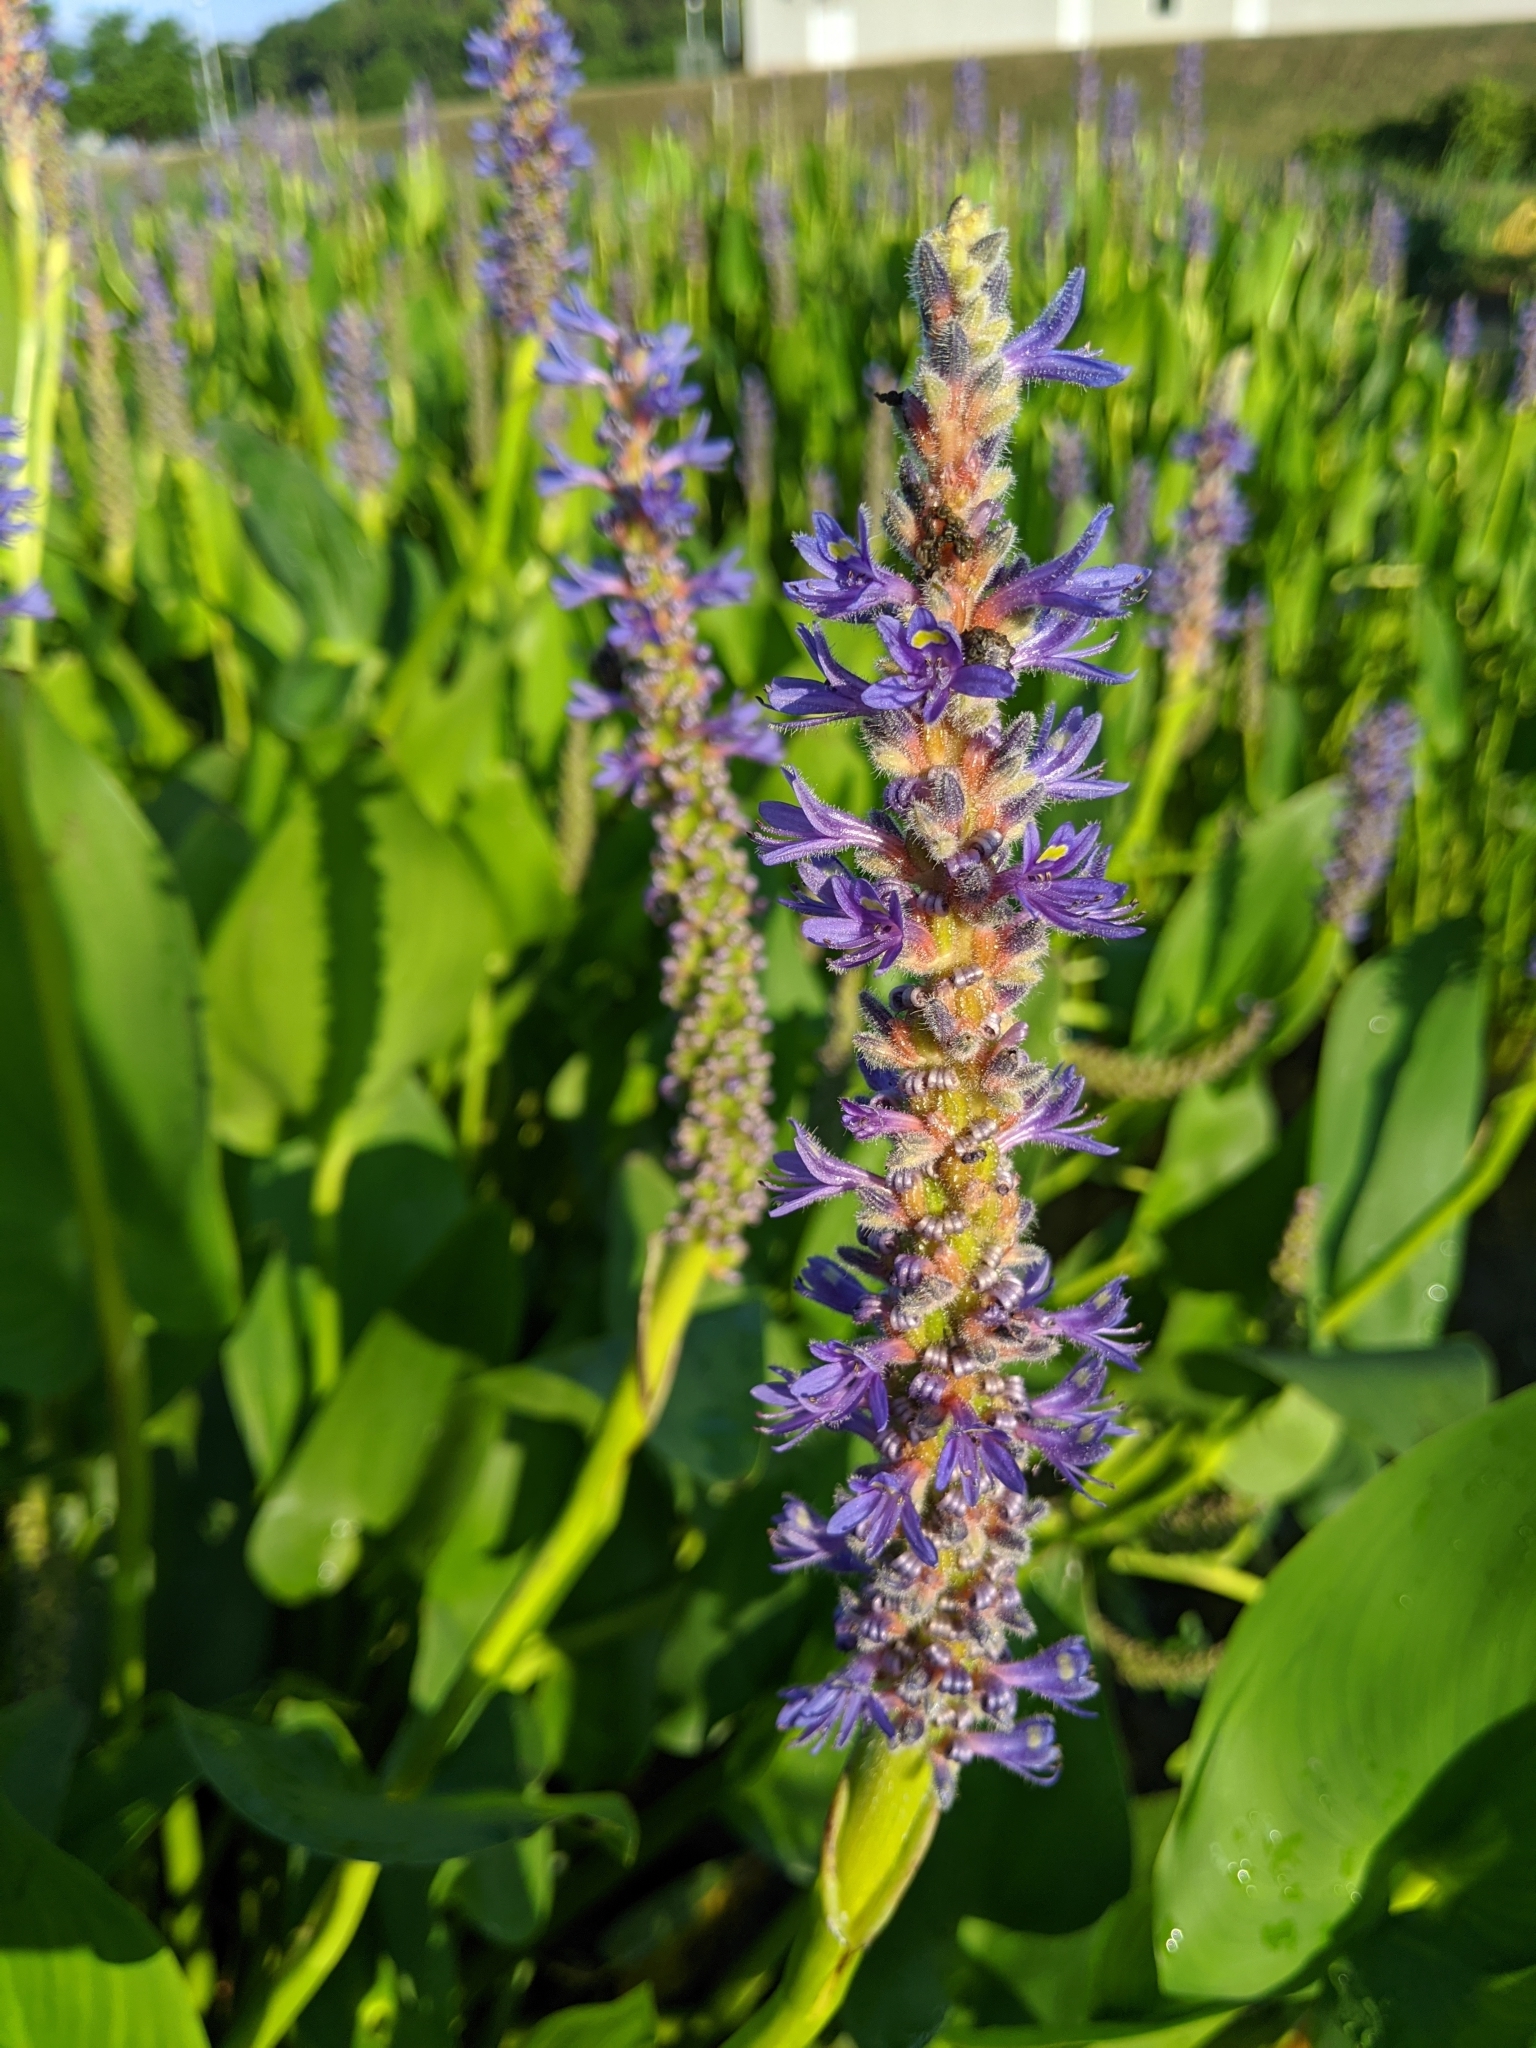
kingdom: Plantae
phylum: Tracheophyta
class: Liliopsida
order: Commelinales
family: Pontederiaceae
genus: Pontederia
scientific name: Pontederia cordata
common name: Pickerelweed
